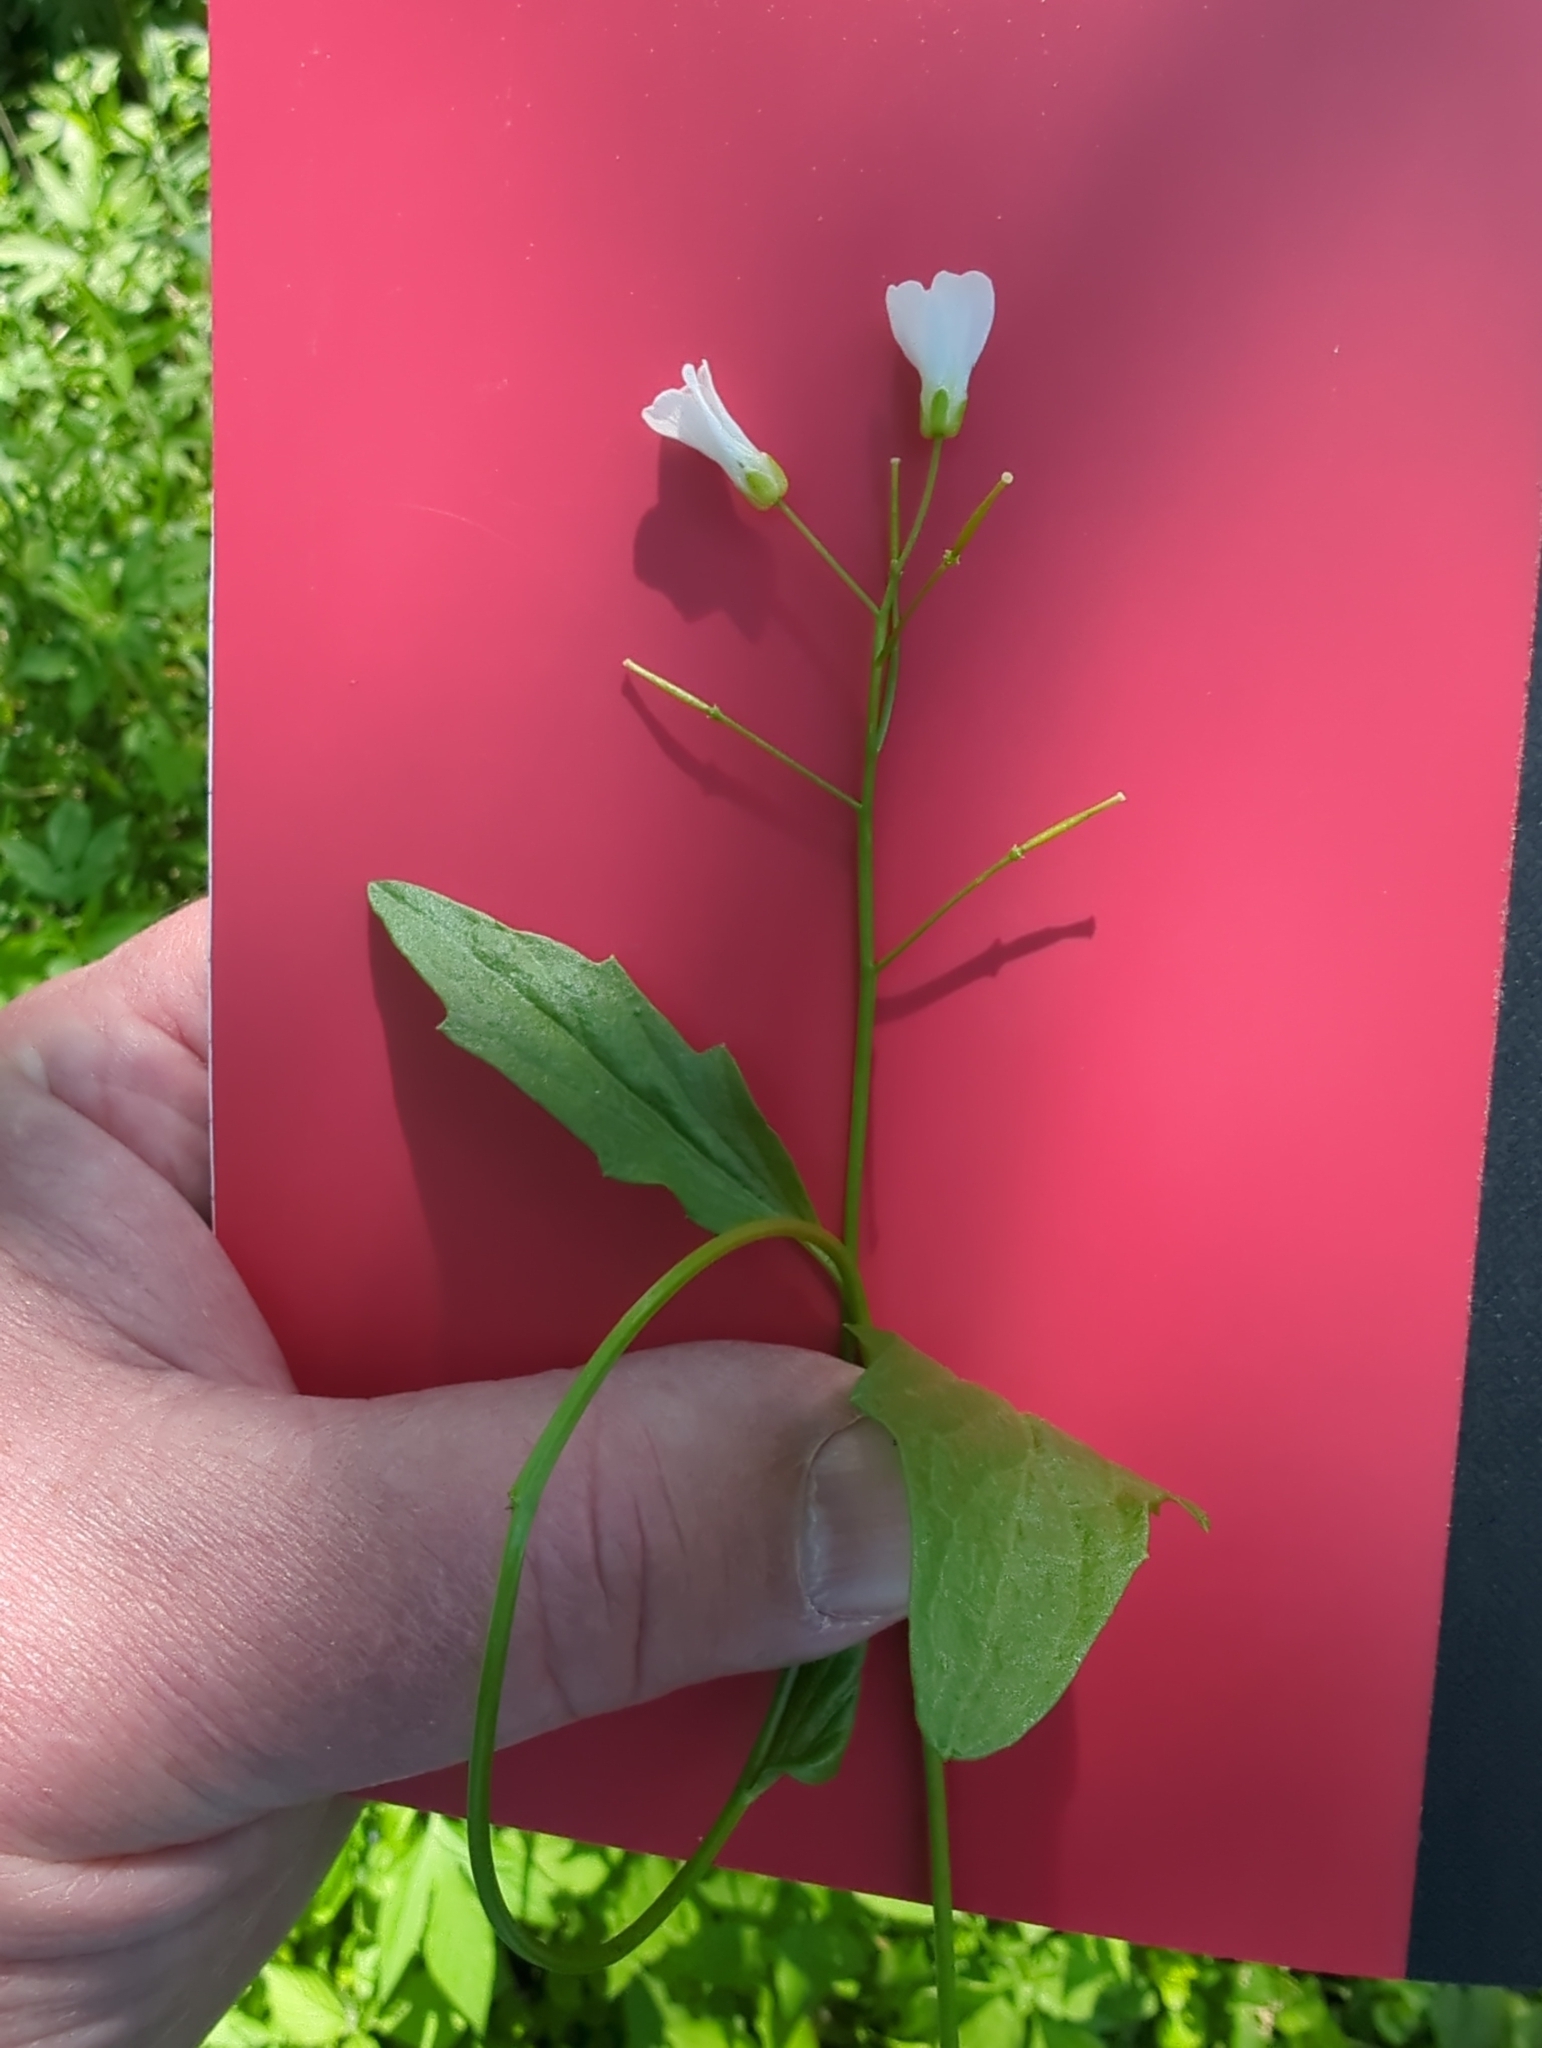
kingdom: Plantae
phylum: Tracheophyta
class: Magnoliopsida
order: Brassicales
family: Brassicaceae
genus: Cardamine
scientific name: Cardamine bulbosa
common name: Spring cress
